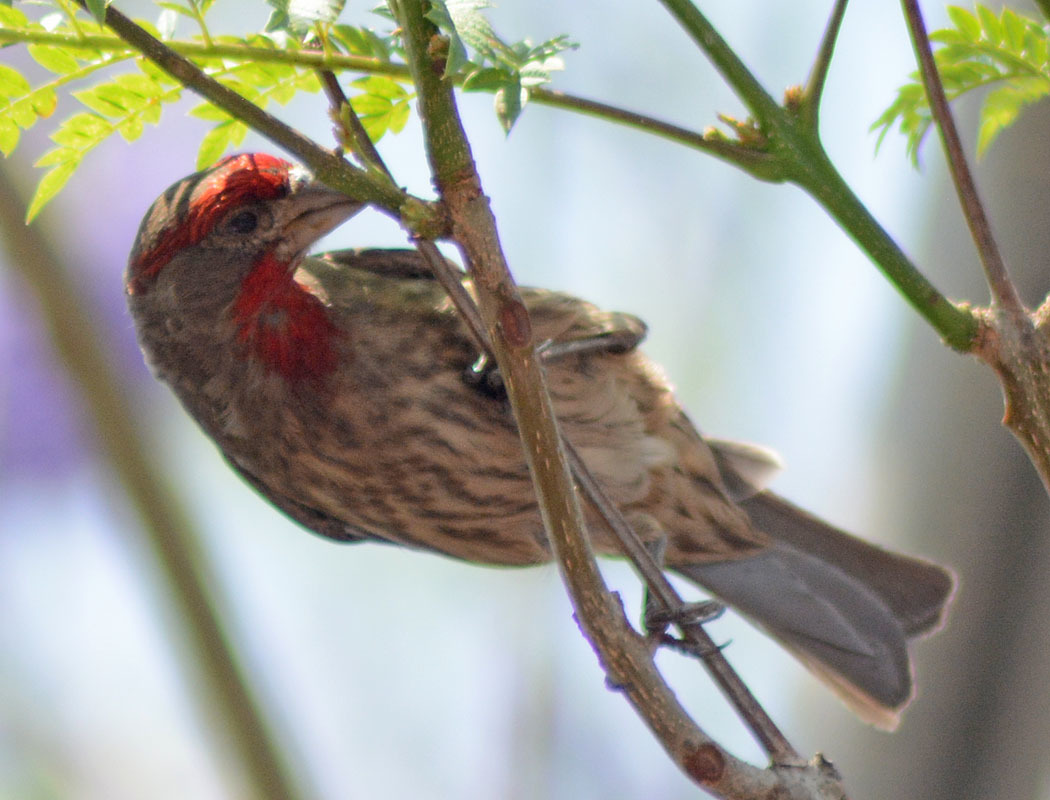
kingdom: Animalia
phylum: Chordata
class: Aves
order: Passeriformes
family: Fringillidae
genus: Haemorhous
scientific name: Haemorhous mexicanus
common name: House finch
